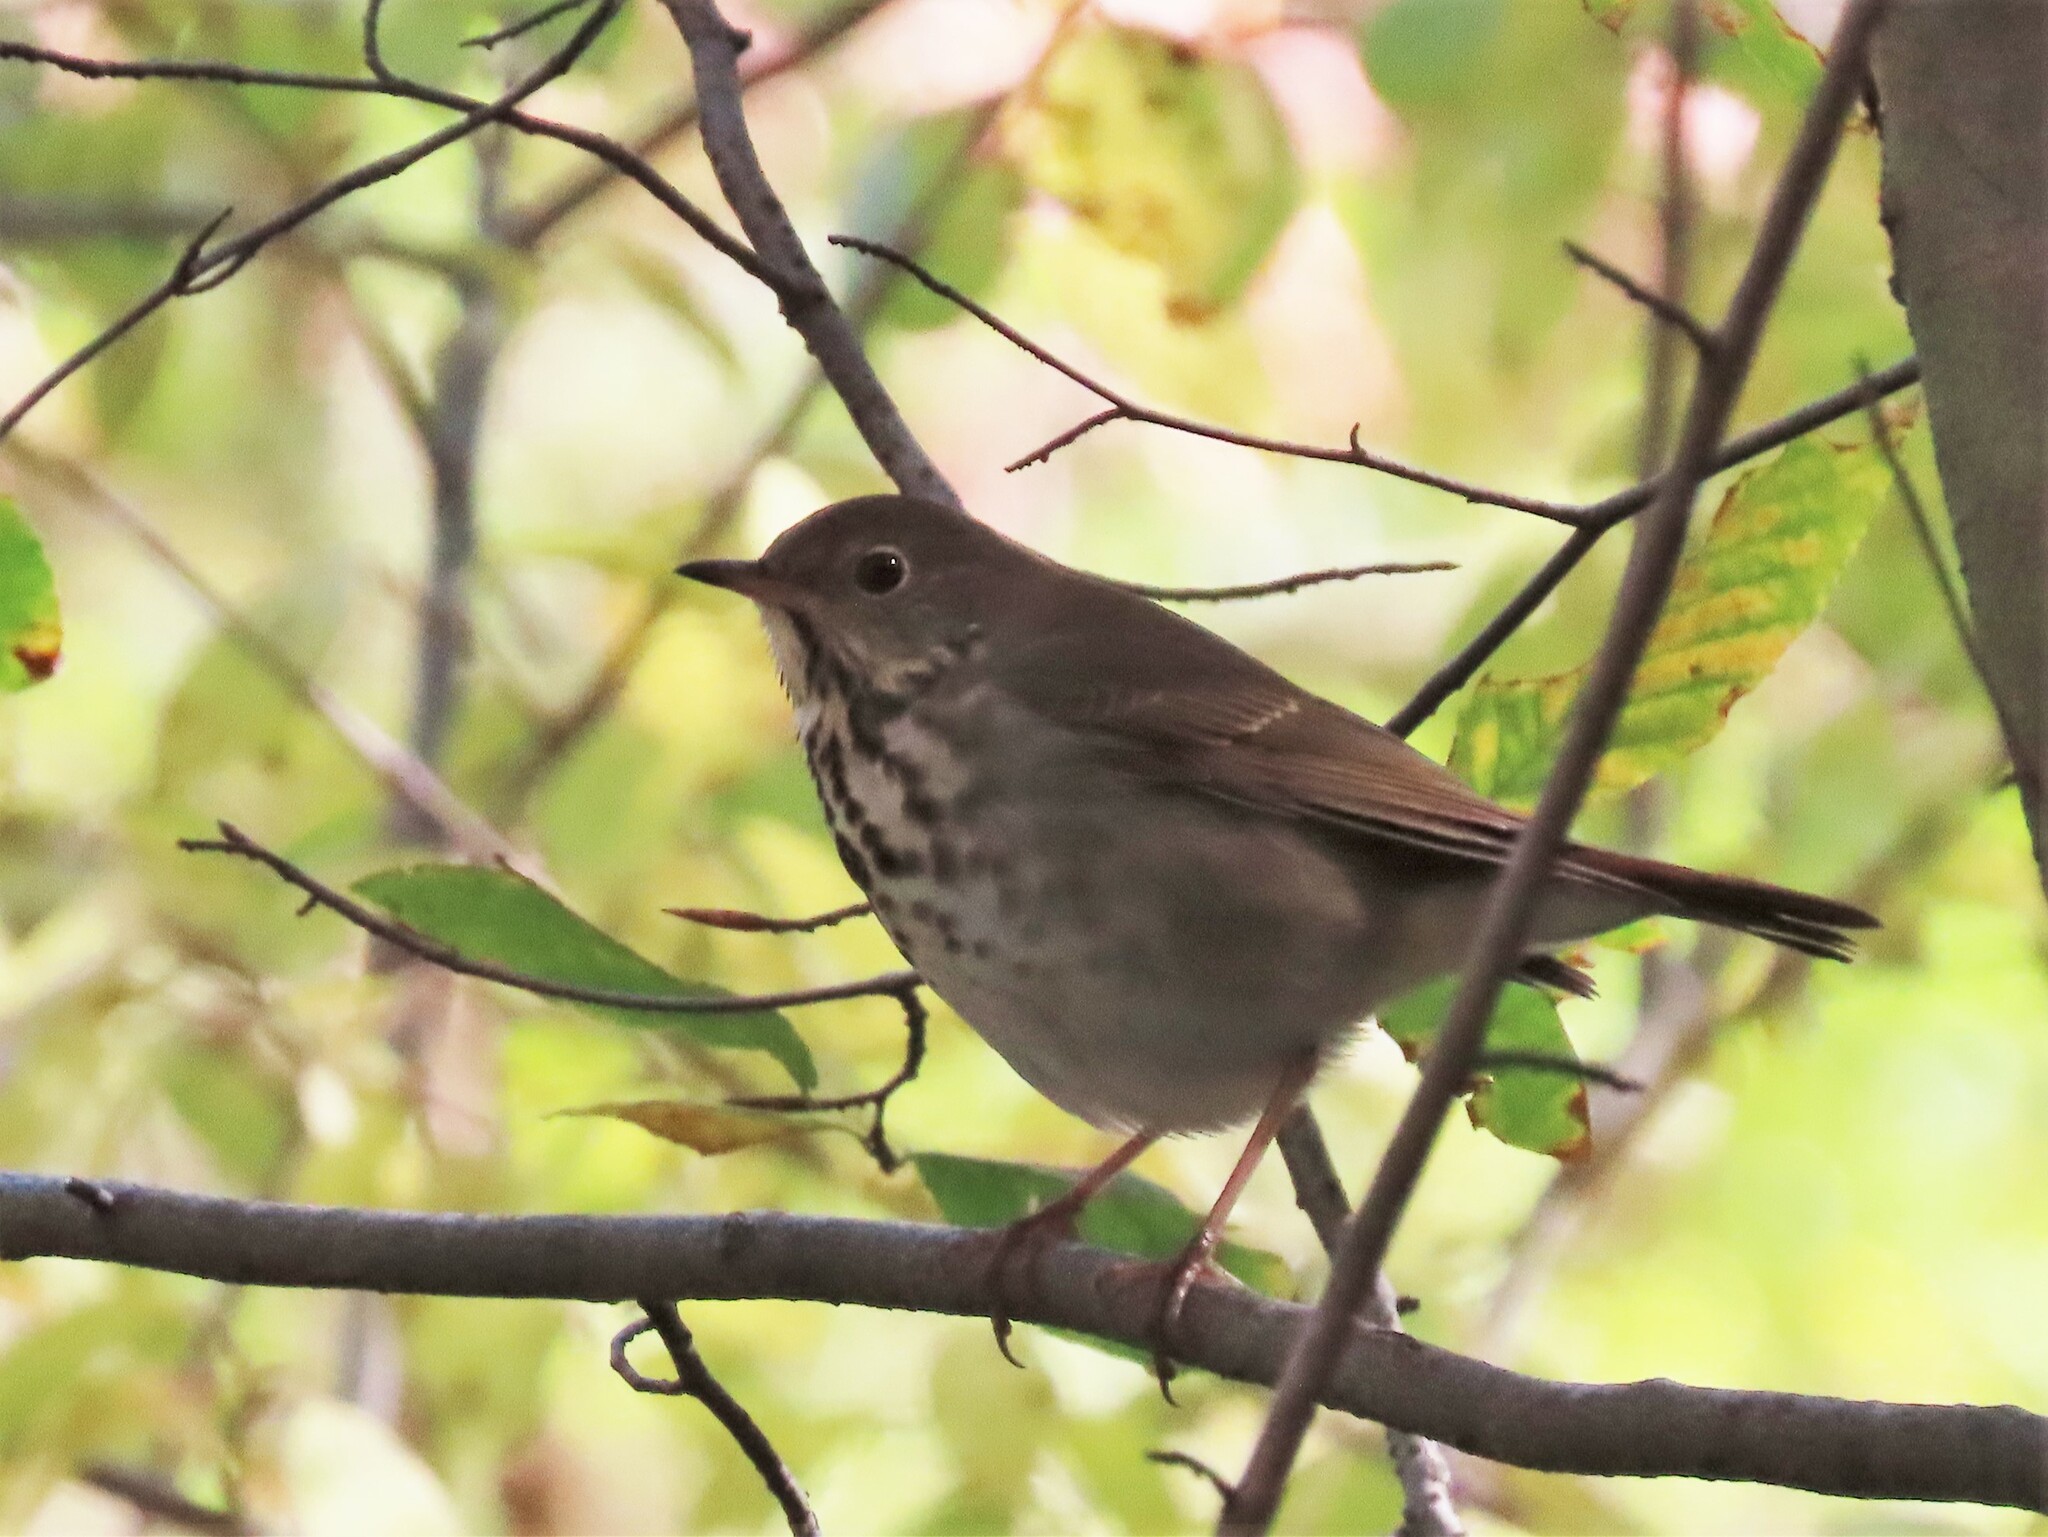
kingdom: Animalia
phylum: Chordata
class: Aves
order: Passeriformes
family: Turdidae
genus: Catharus
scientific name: Catharus guttatus
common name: Hermit thrush
